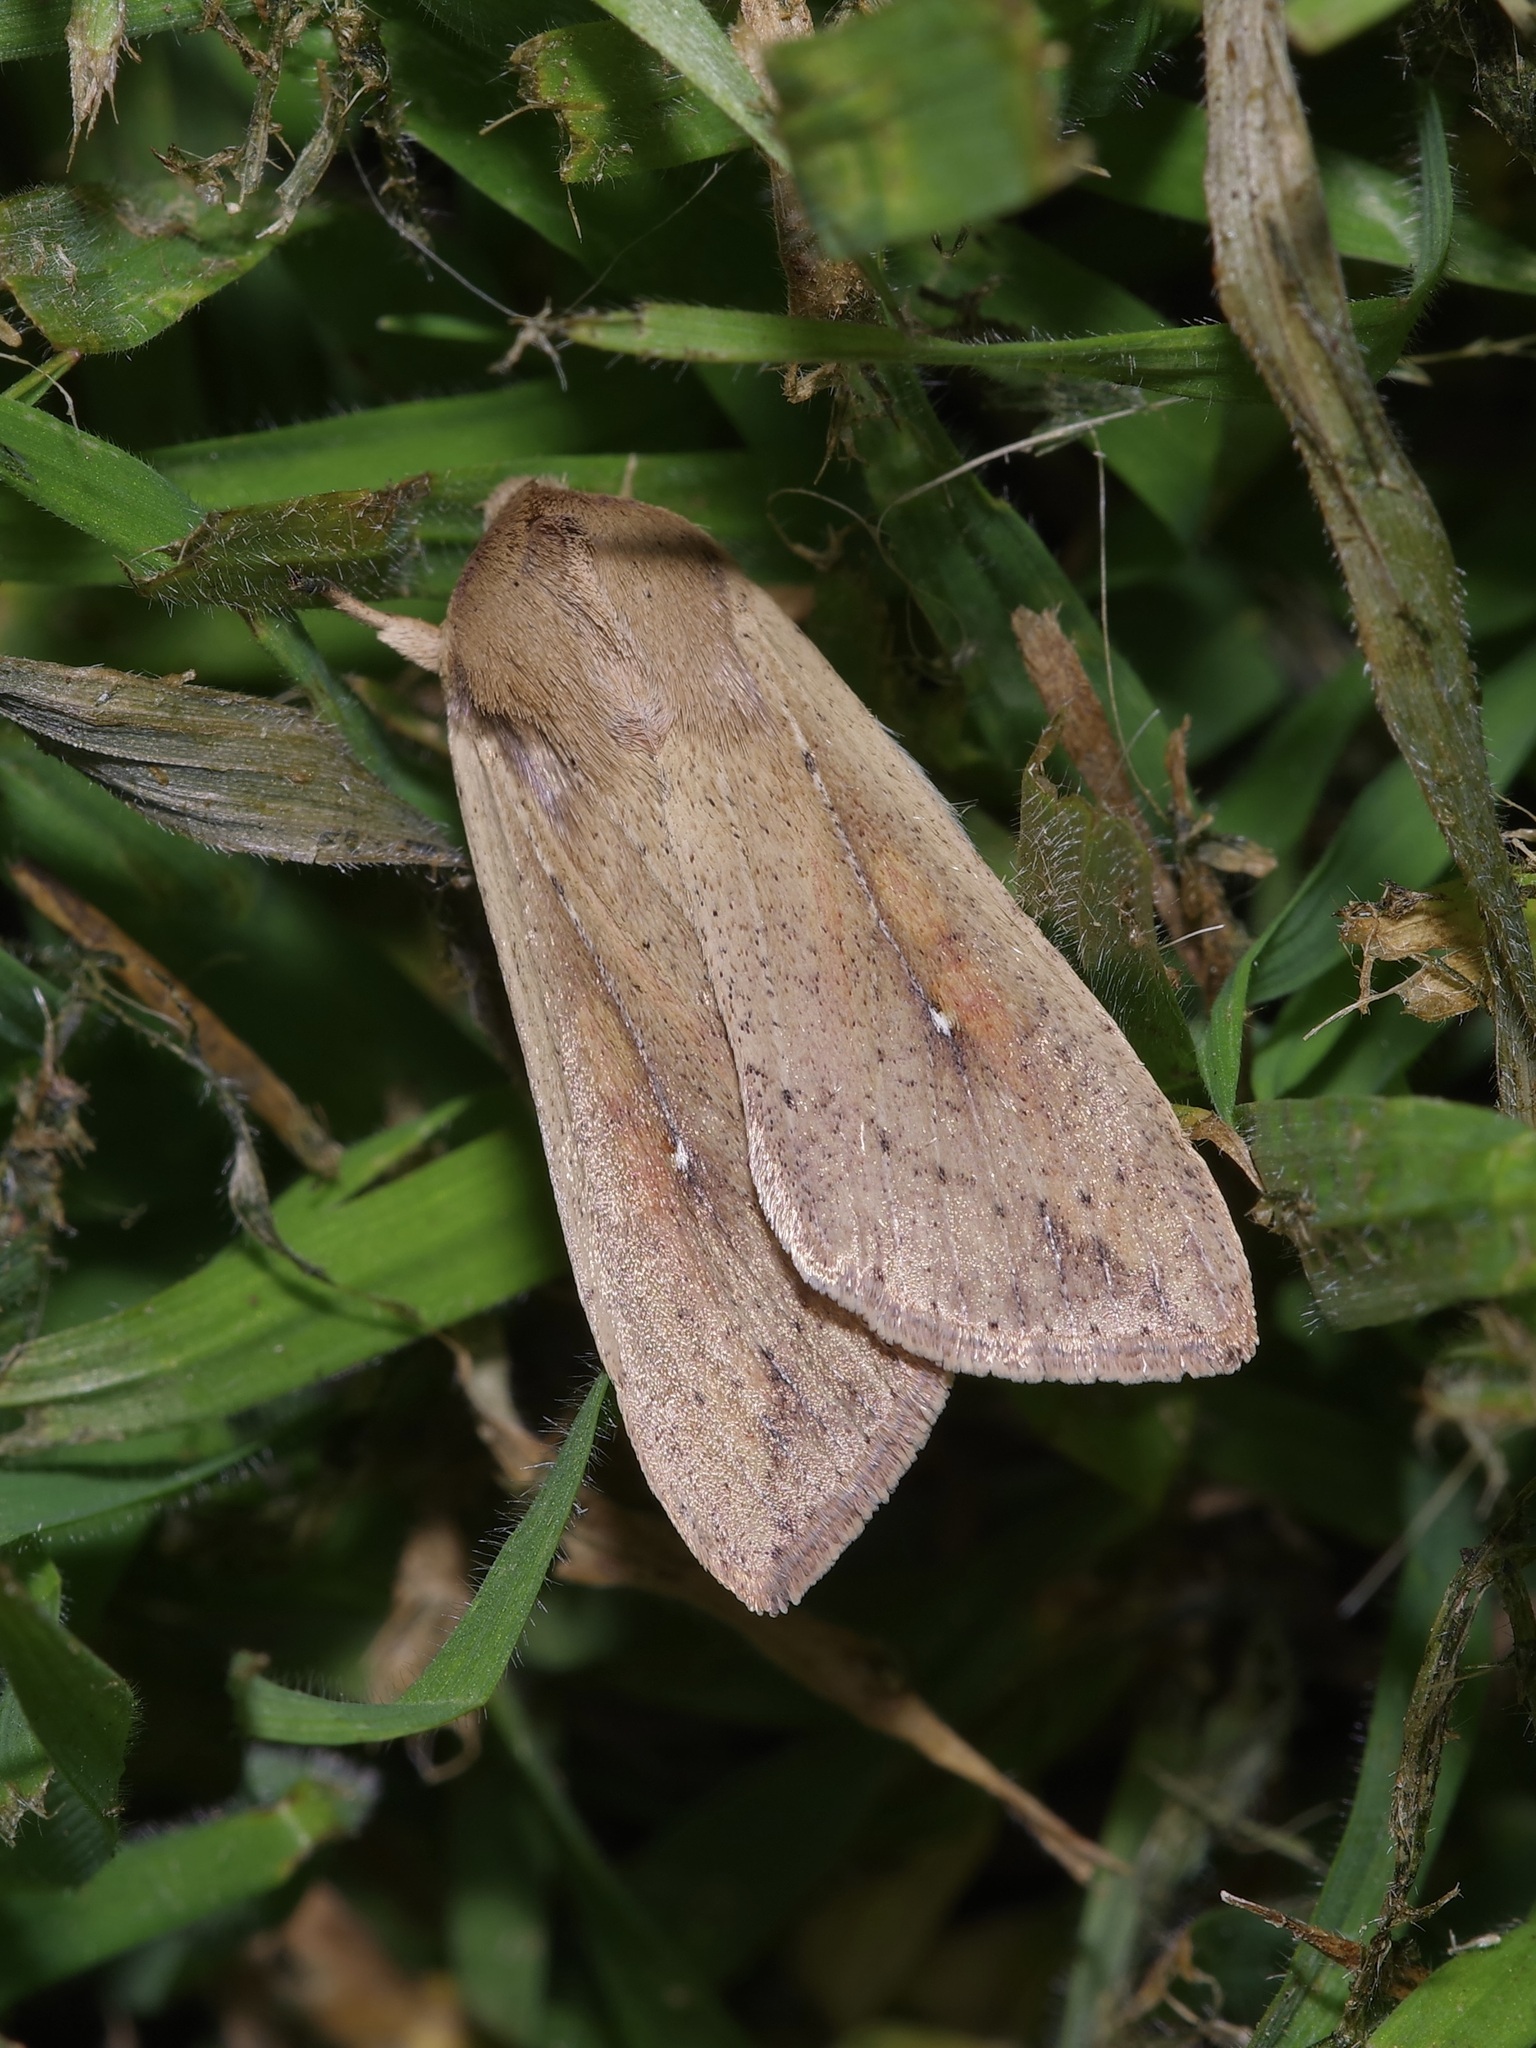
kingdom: Animalia
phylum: Arthropoda
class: Insecta
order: Lepidoptera
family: Noctuidae
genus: Mythimna
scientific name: Mythimna unipuncta
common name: White-speck
